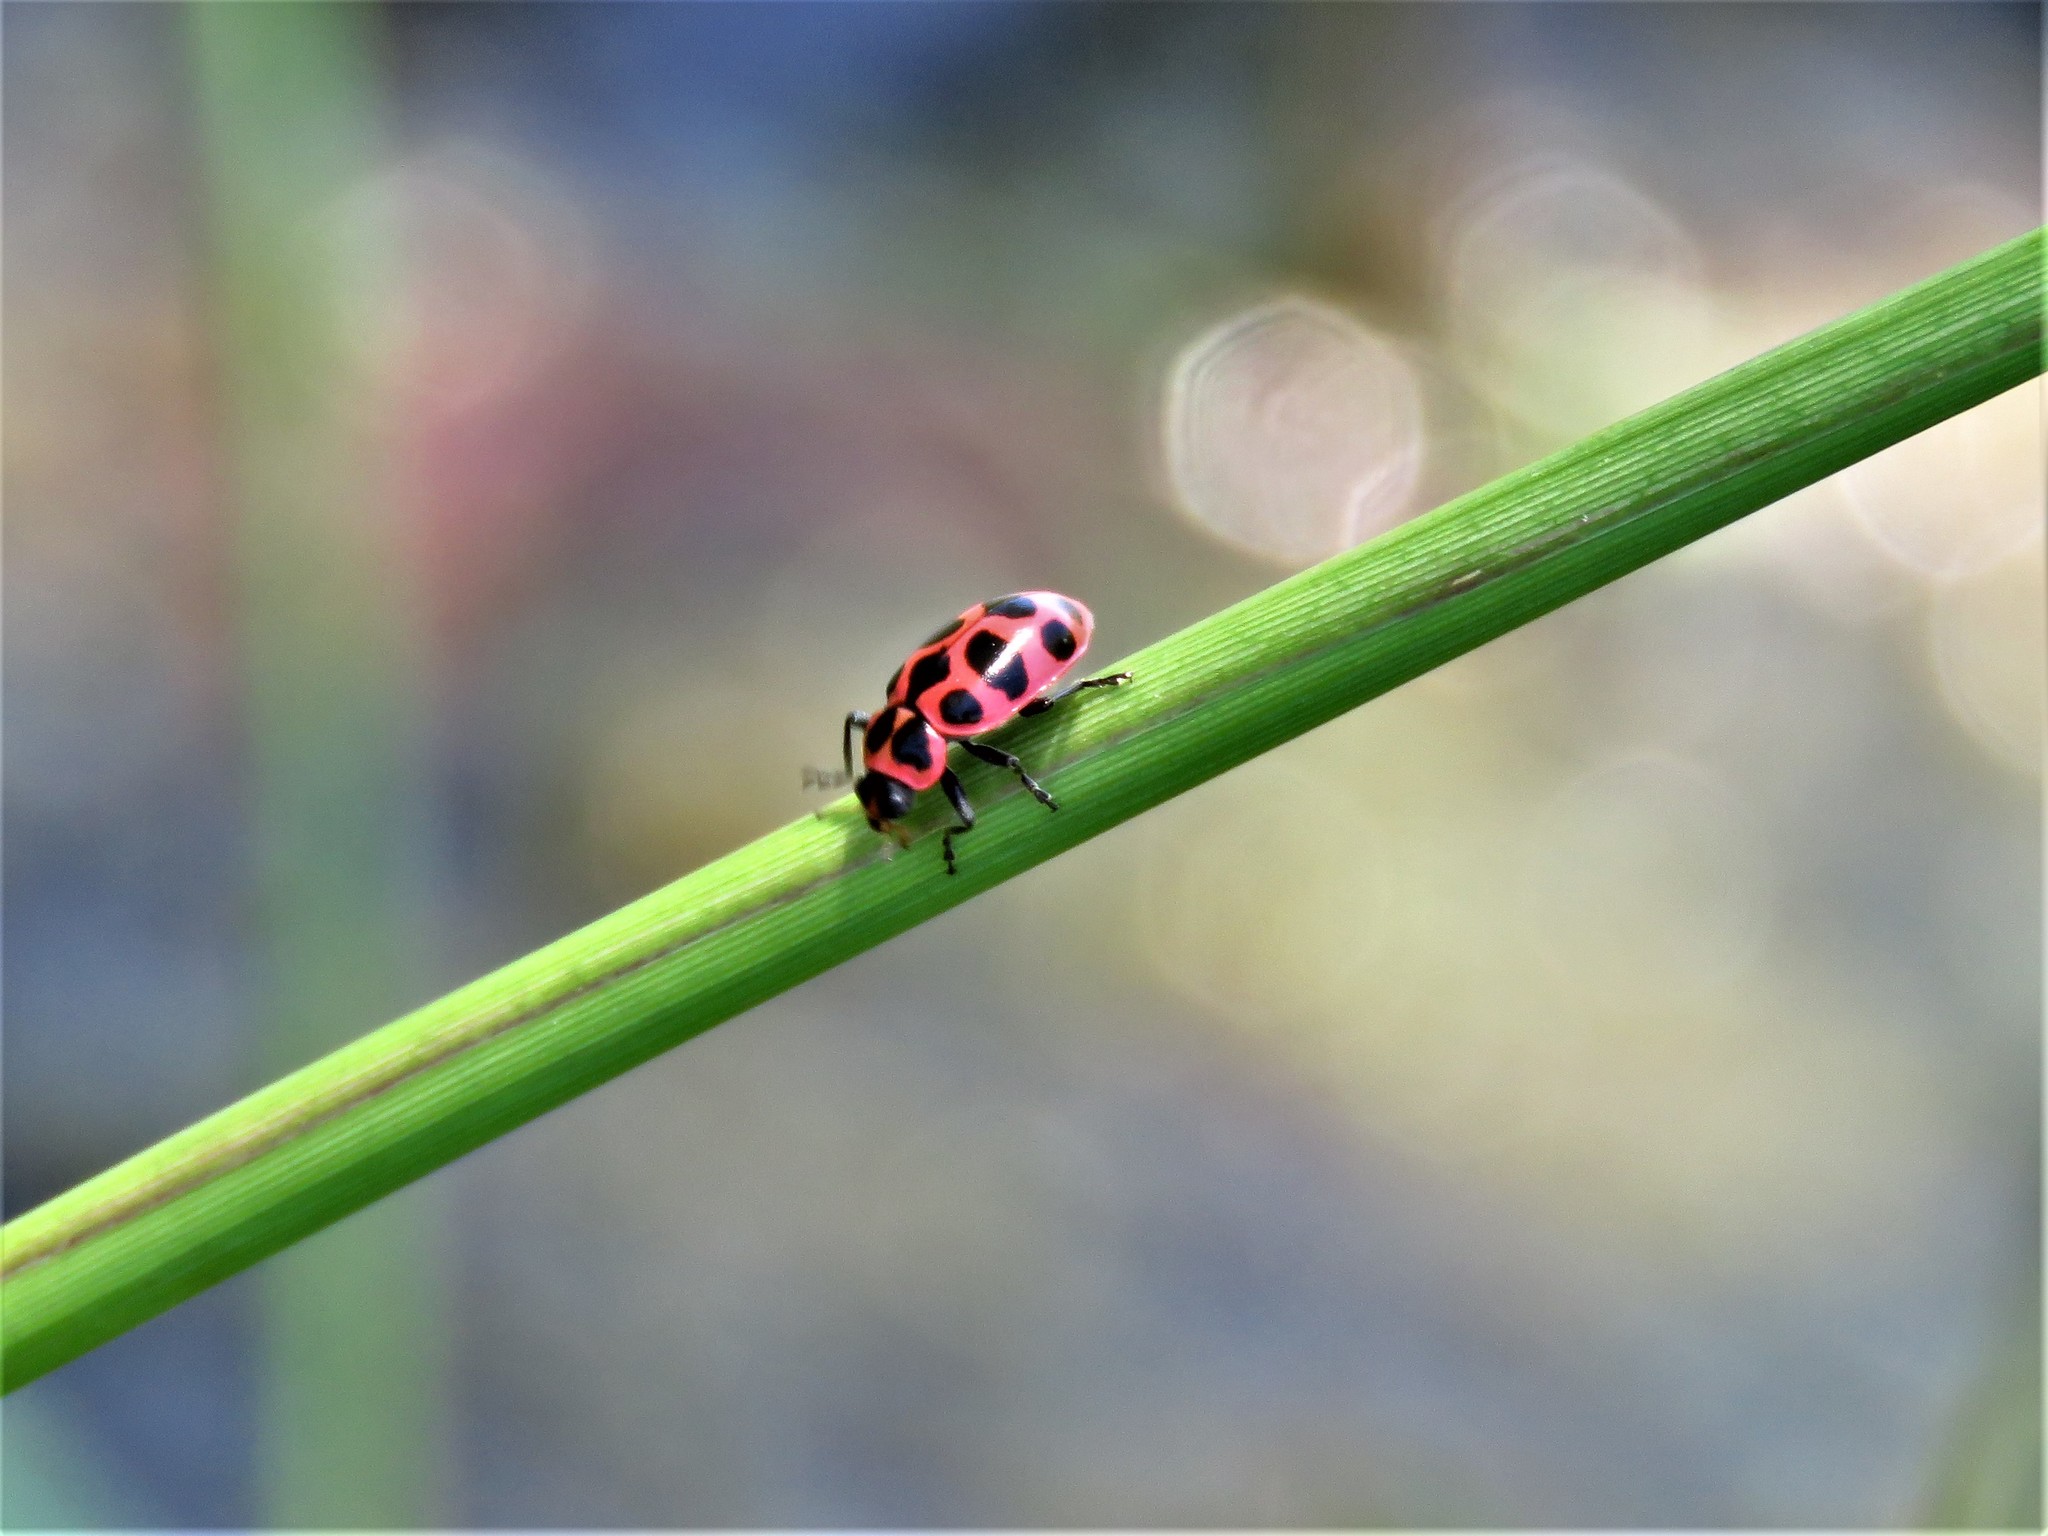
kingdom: Animalia
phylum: Arthropoda
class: Insecta
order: Coleoptera
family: Coccinellidae
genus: Coleomegilla
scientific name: Coleomegilla maculata
